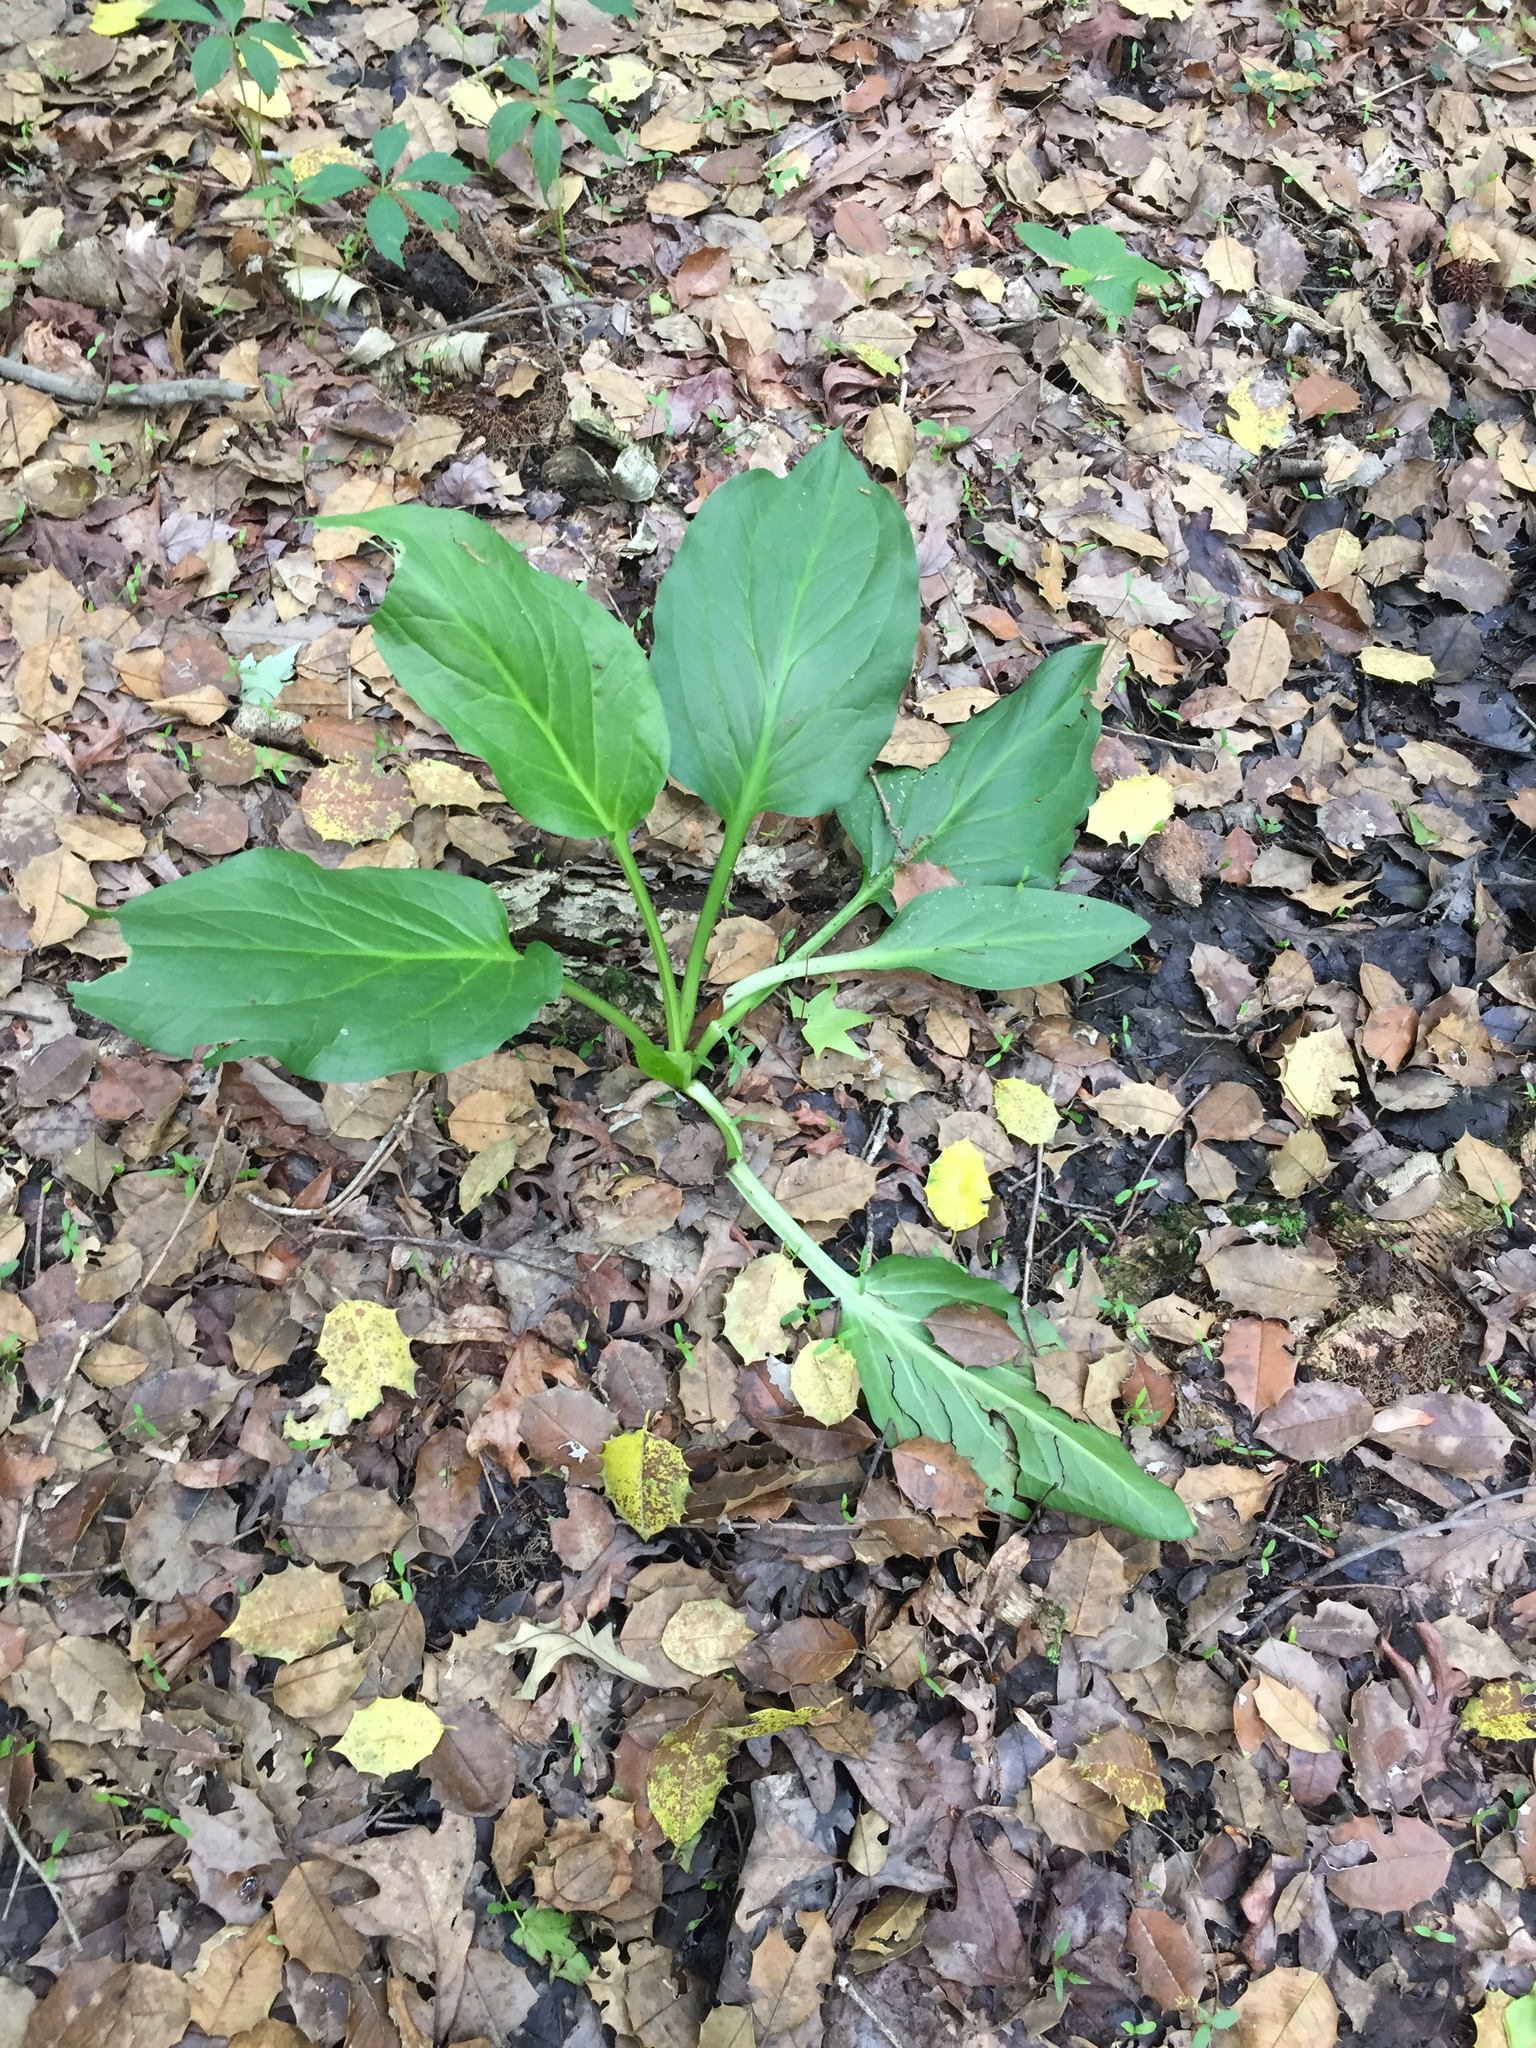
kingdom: Plantae
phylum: Tracheophyta
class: Liliopsida
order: Alismatales
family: Araceae
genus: Symplocarpus
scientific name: Symplocarpus foetidus
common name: Eastern skunk cabbage
